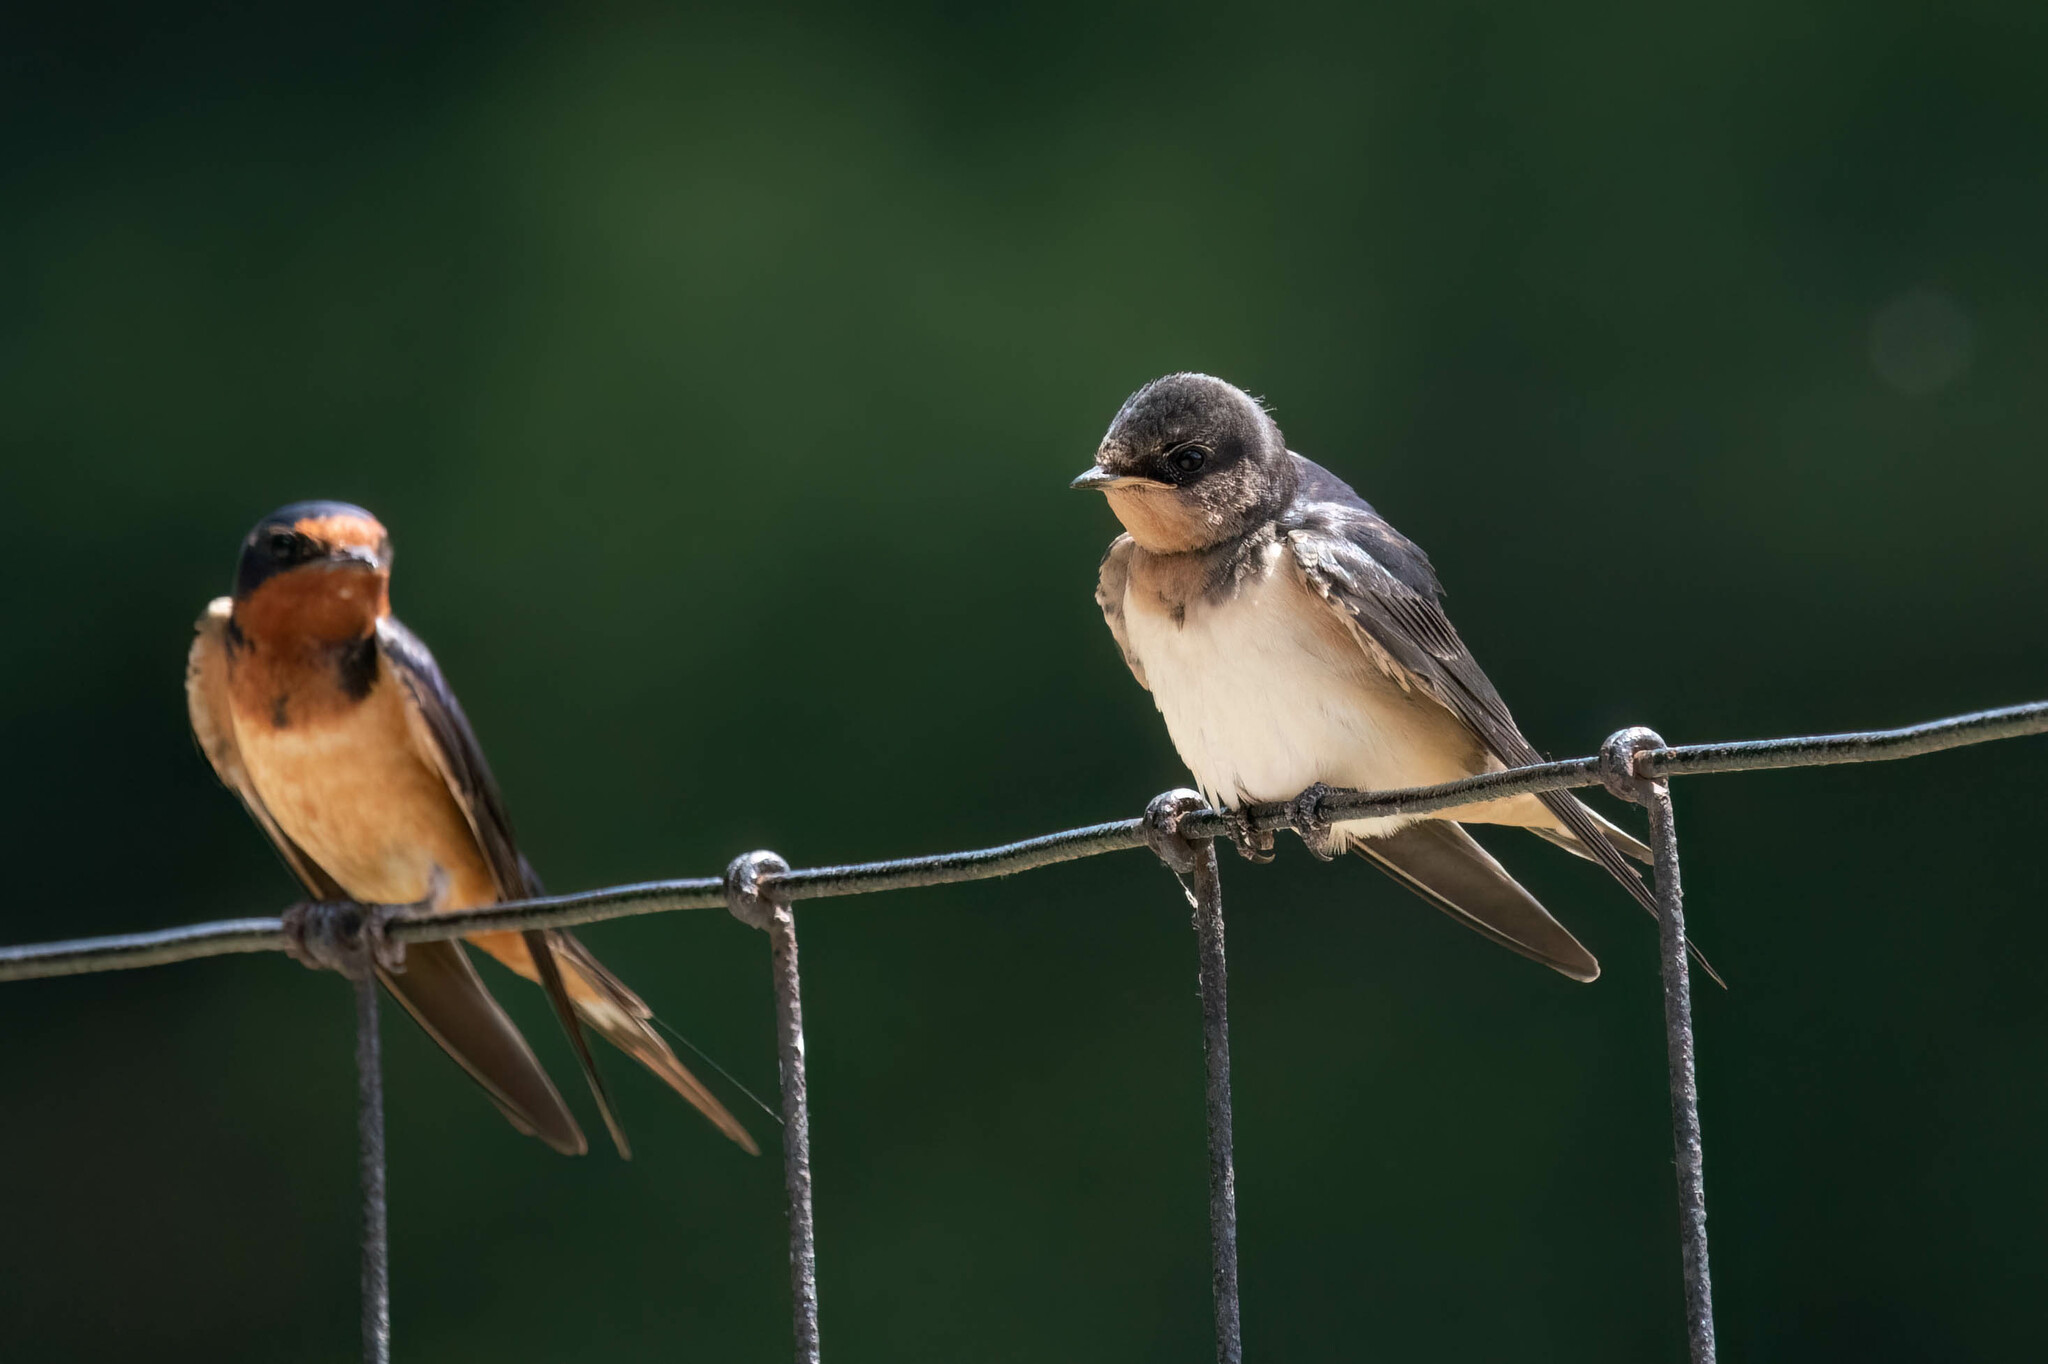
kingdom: Animalia
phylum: Chordata
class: Aves
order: Passeriformes
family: Hirundinidae
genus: Hirundo
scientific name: Hirundo rustica
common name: Barn swallow
